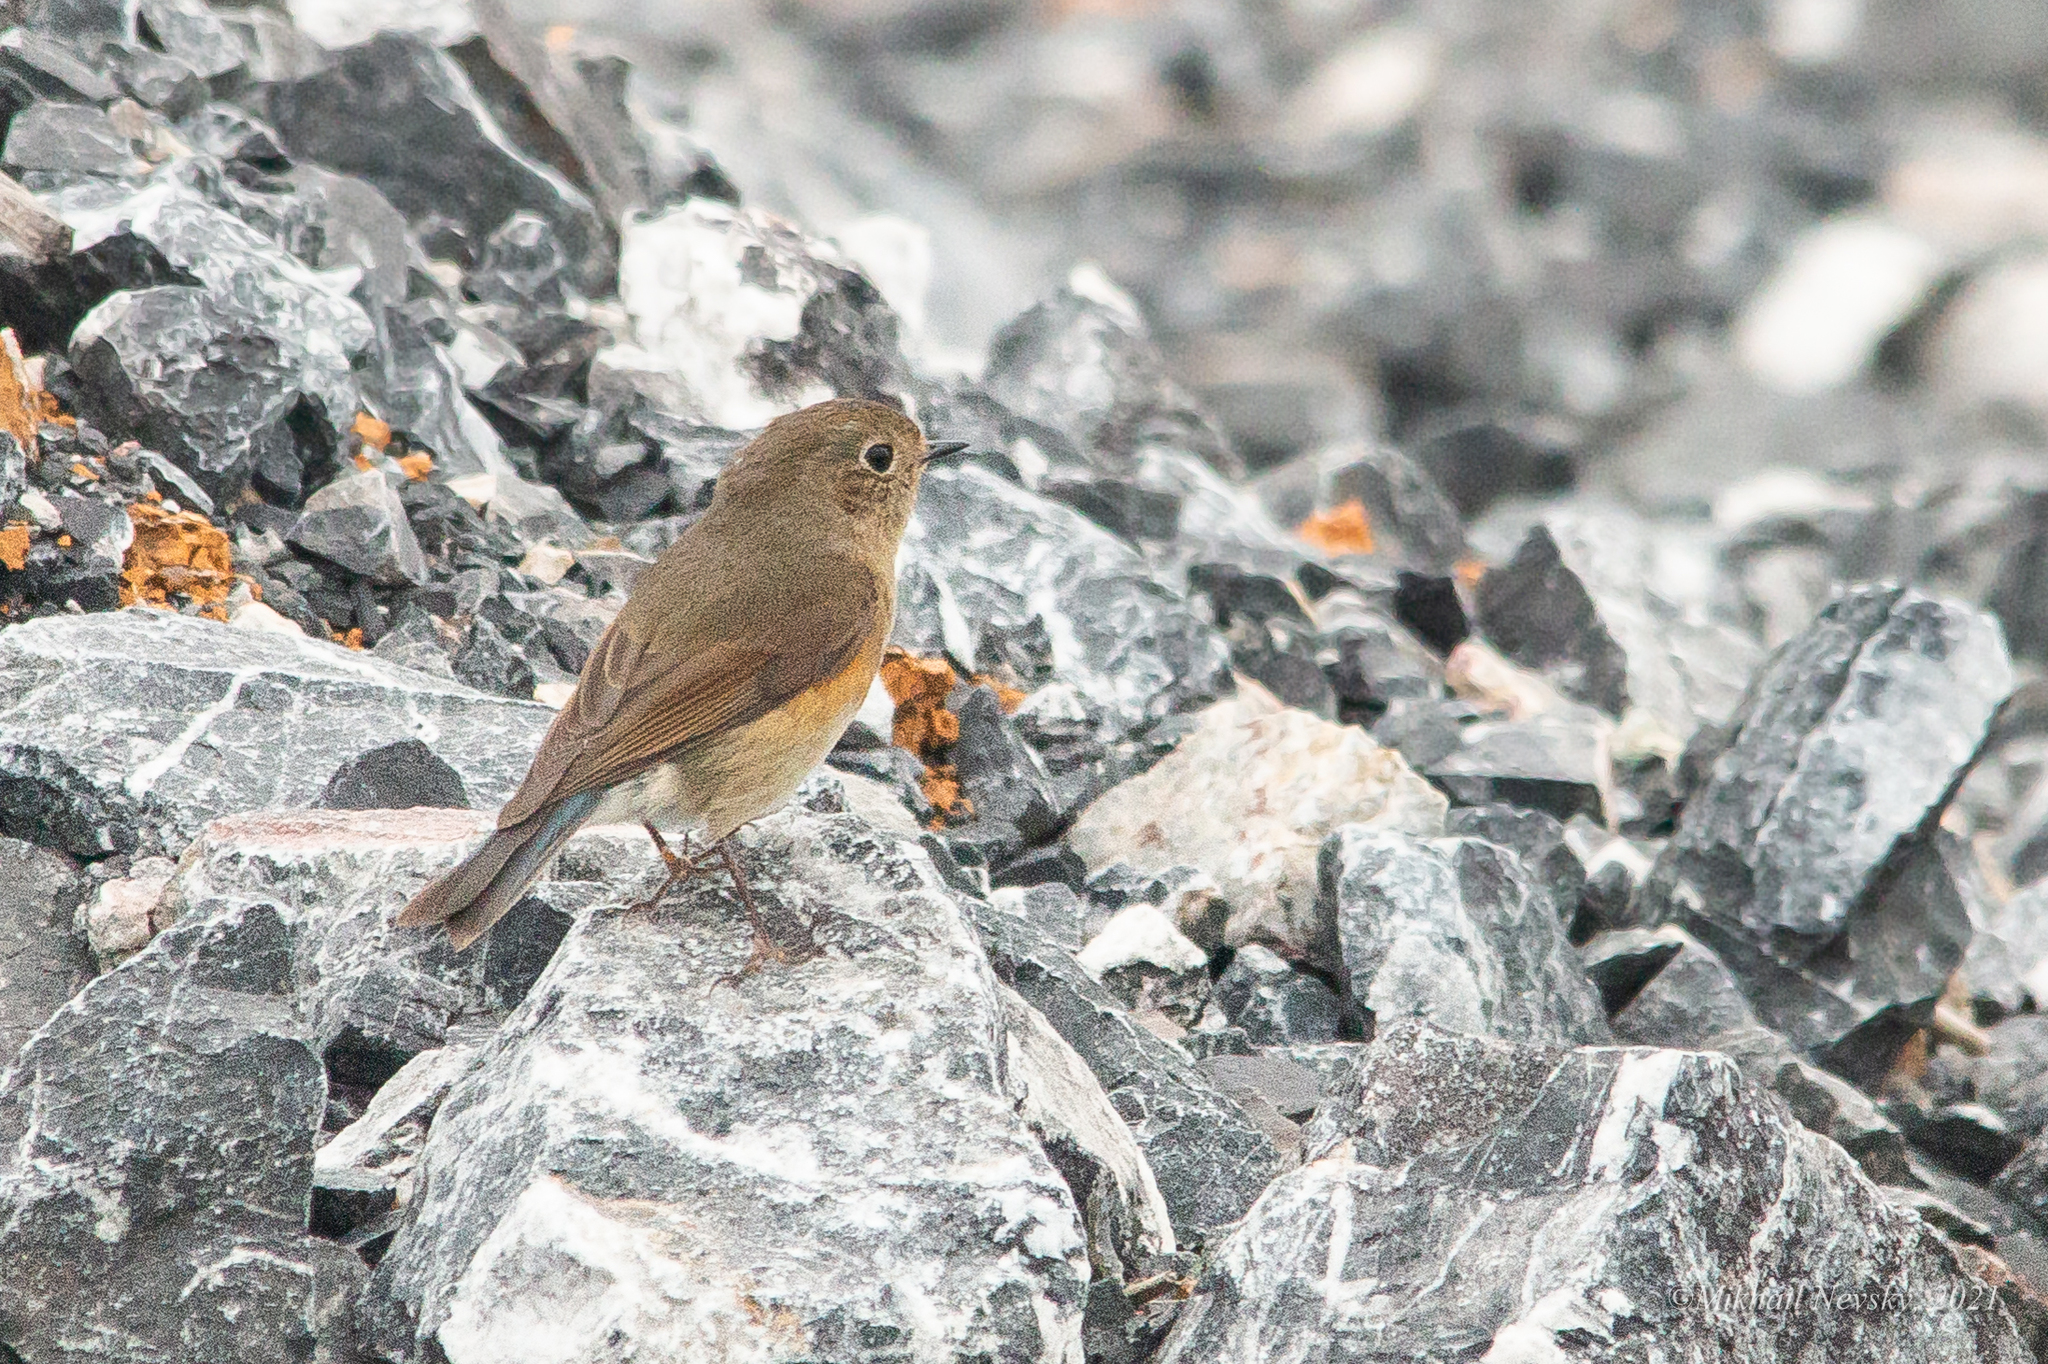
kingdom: Animalia
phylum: Chordata
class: Aves
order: Passeriformes
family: Muscicapidae
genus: Tarsiger
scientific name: Tarsiger cyanurus
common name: Red-flanked bluetail
